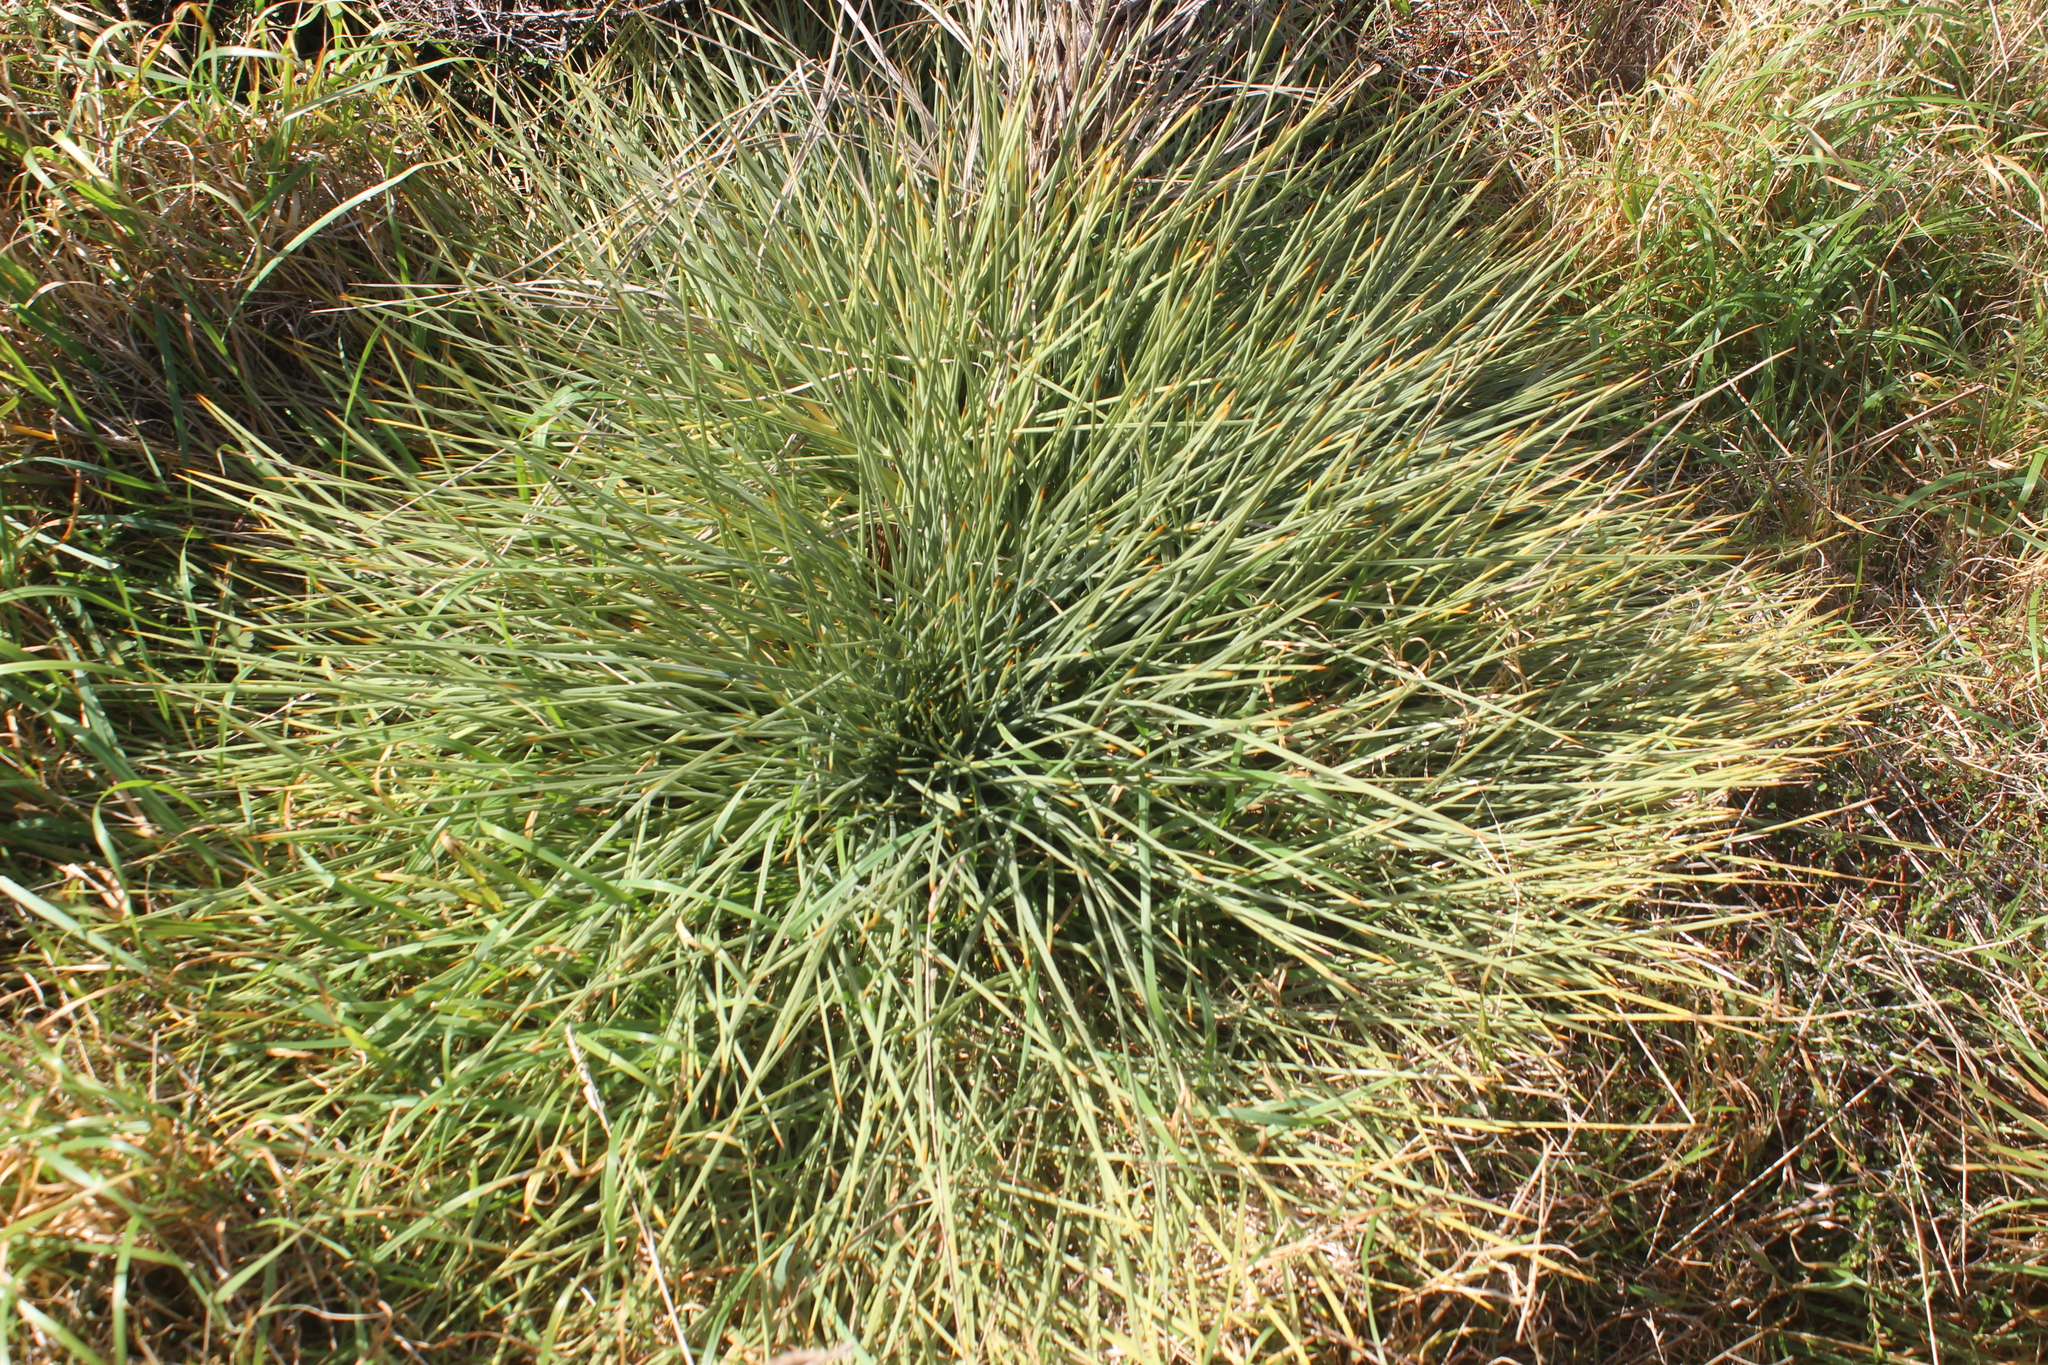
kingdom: Plantae
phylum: Tracheophyta
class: Magnoliopsida
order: Apiales
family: Apiaceae
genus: Aciphylla
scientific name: Aciphylla squarrosa
